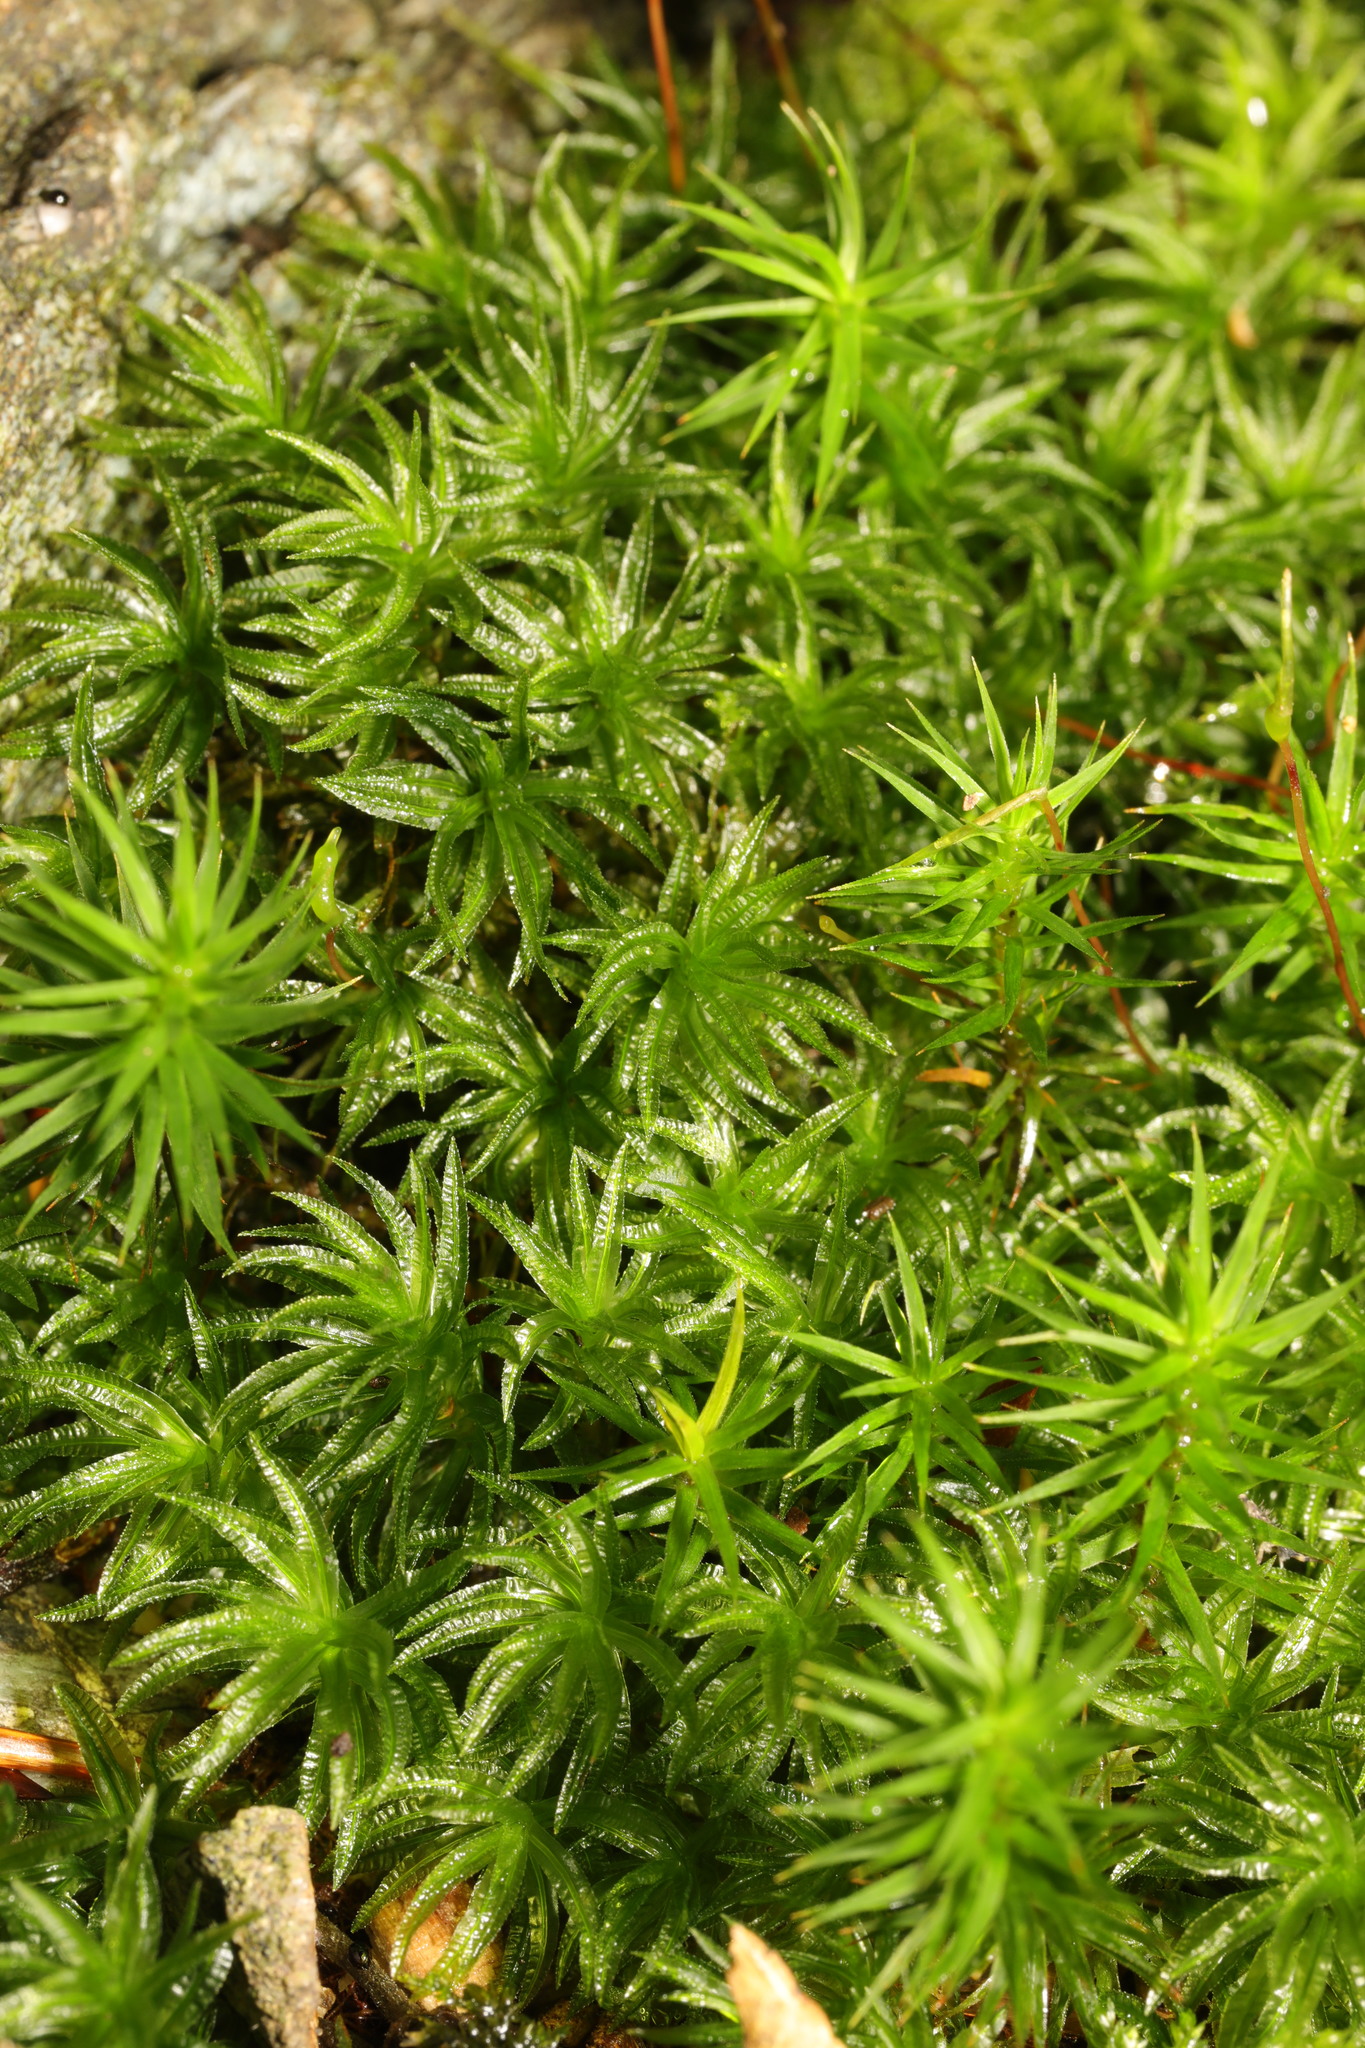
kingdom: Plantae
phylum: Bryophyta
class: Polytrichopsida
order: Polytrichales
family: Polytrichaceae
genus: Polytrichum
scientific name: Polytrichum formosum
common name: Bank haircap moss
